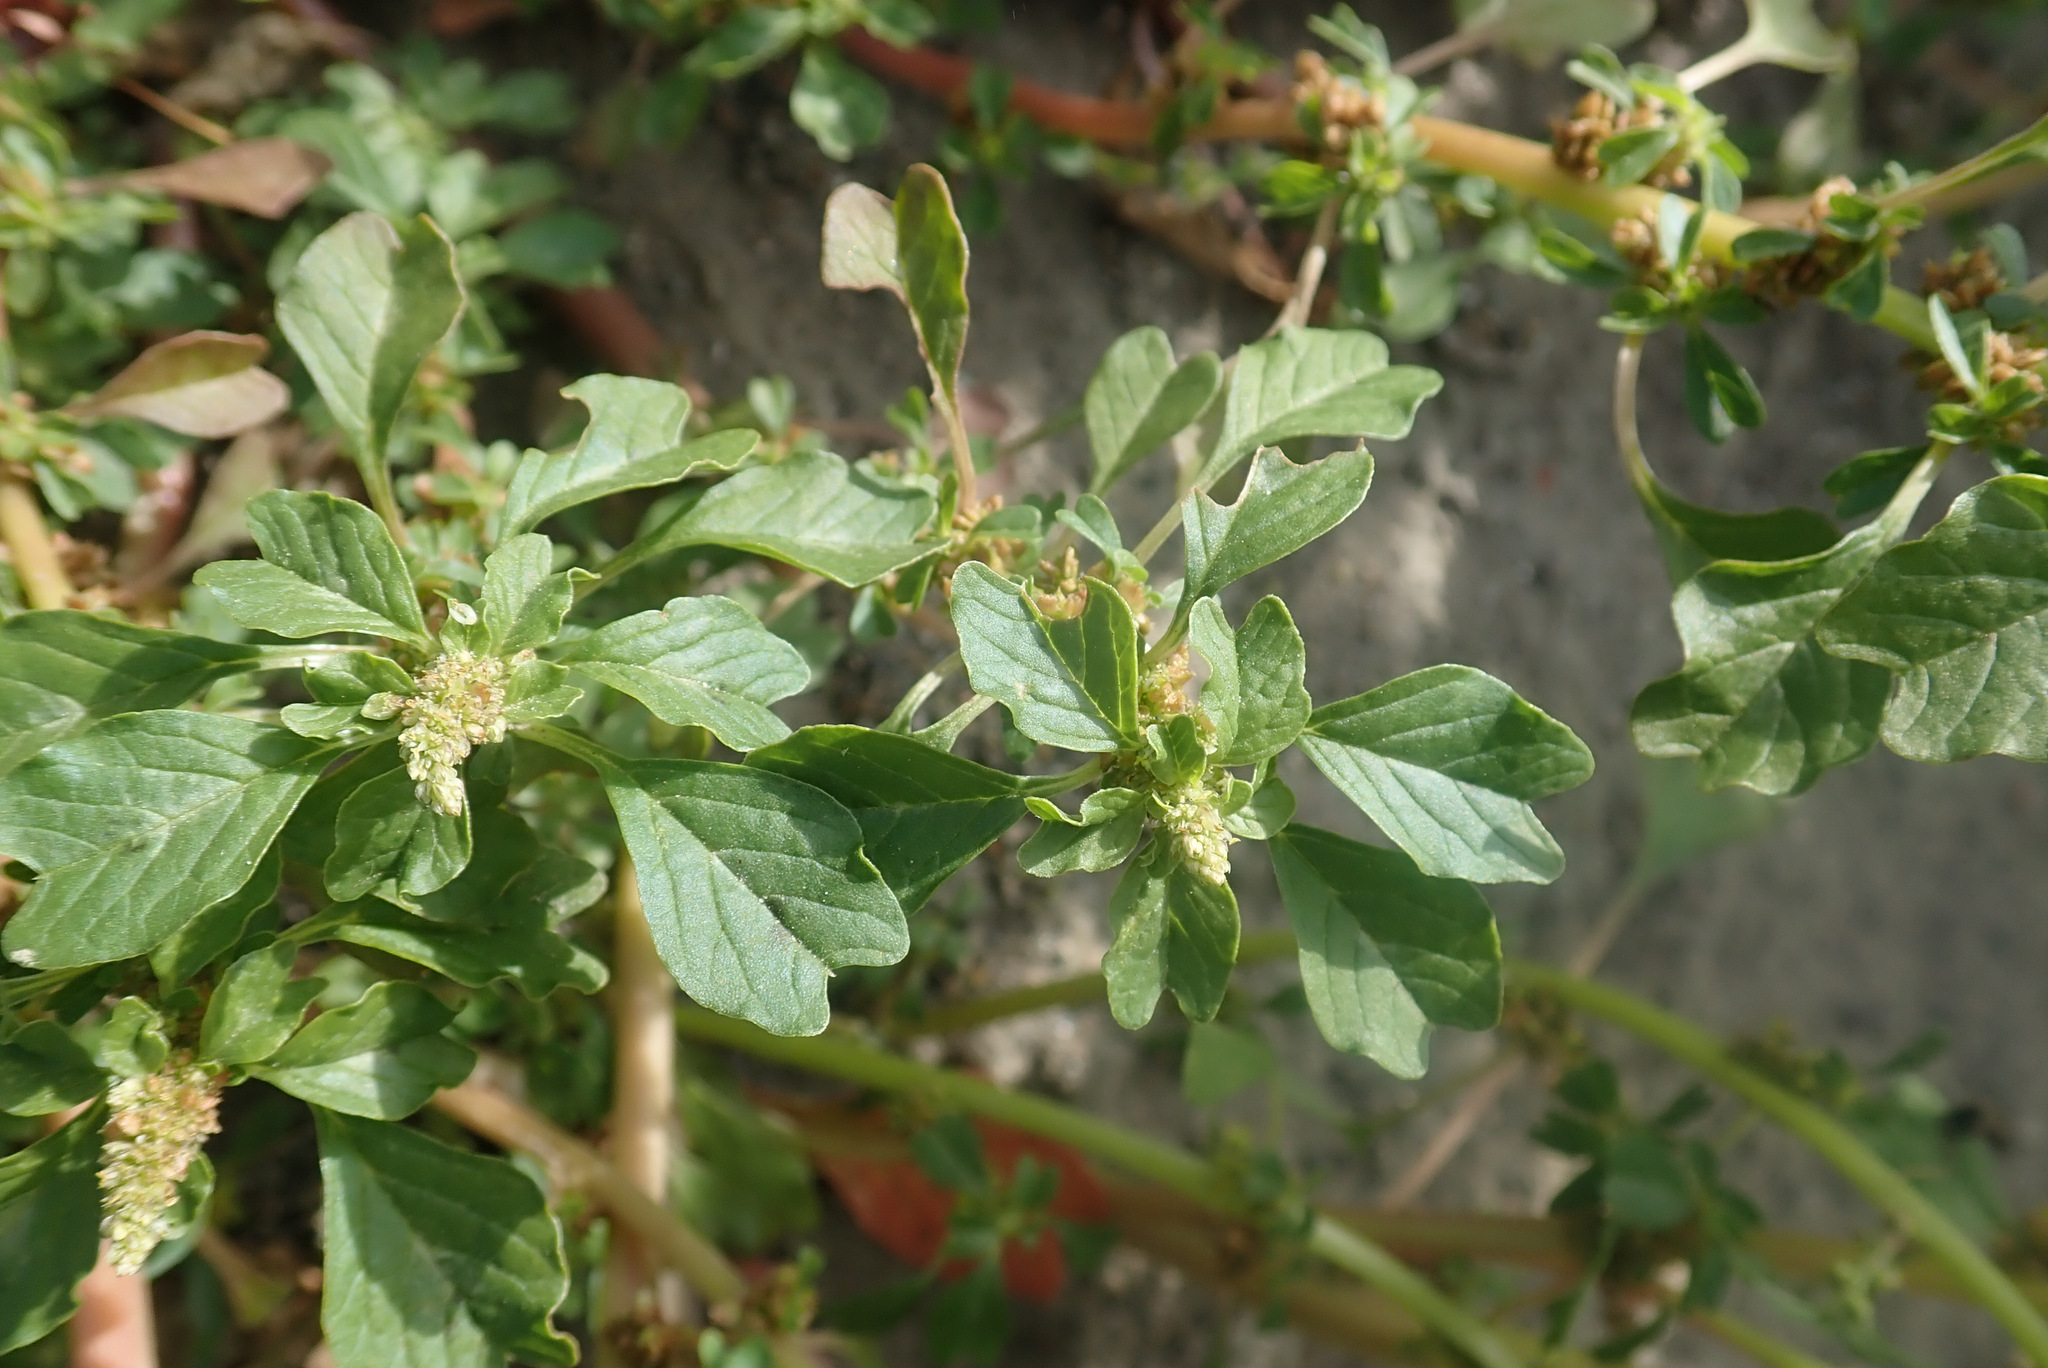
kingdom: Plantae
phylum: Tracheophyta
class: Magnoliopsida
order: Caryophyllales
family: Amaranthaceae
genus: Amaranthus
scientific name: Amaranthus blitum
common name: Purple amaranth
